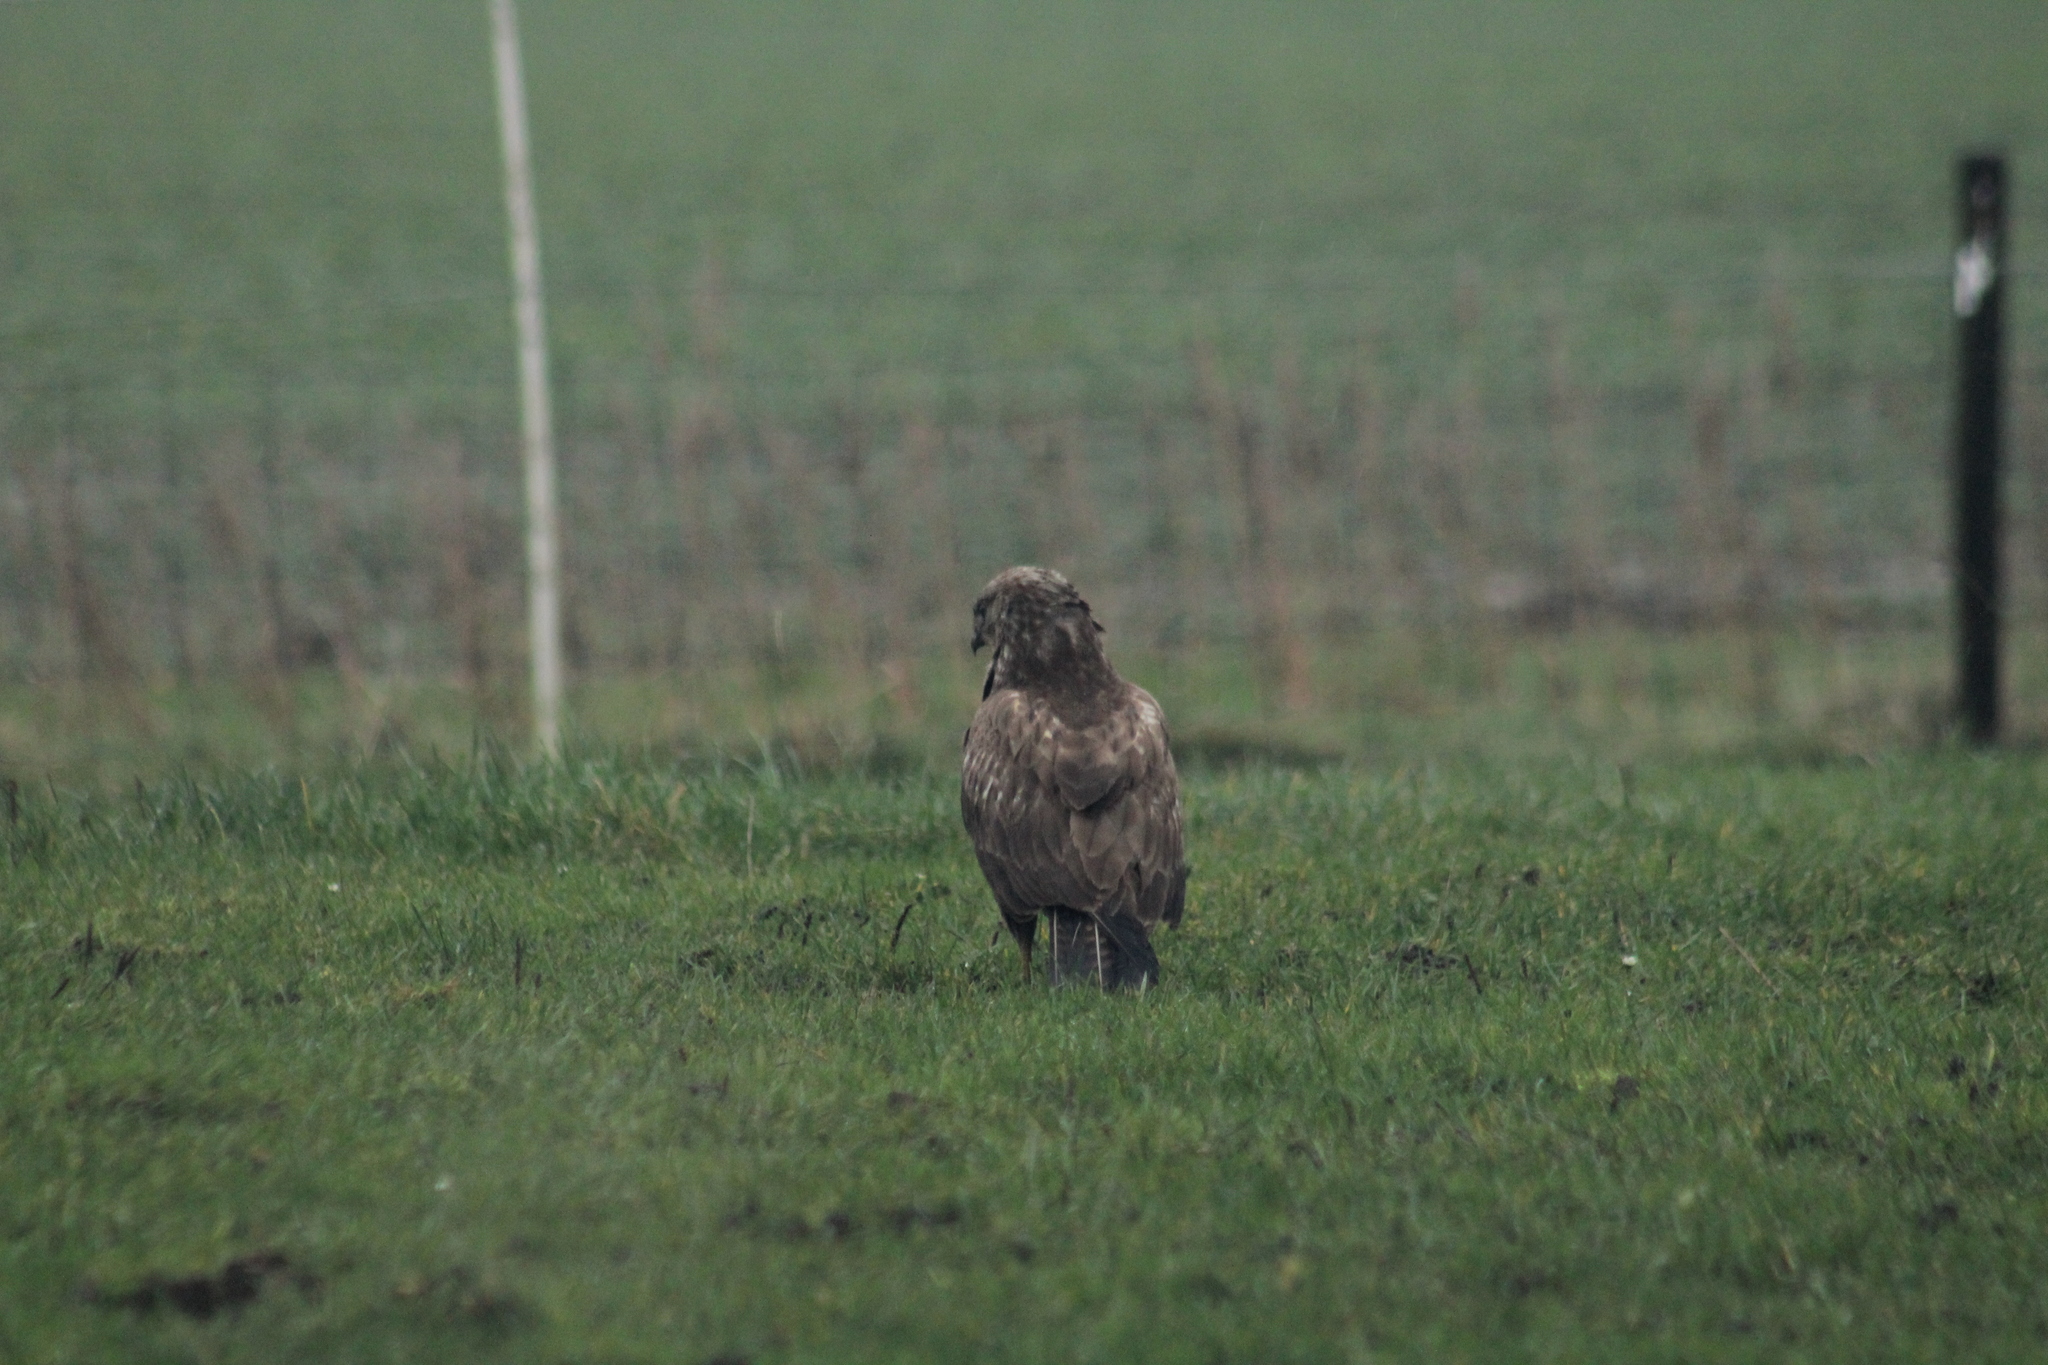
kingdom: Animalia
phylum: Chordata
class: Aves
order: Accipitriformes
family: Accipitridae
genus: Buteo
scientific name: Buteo buteo
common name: Common buzzard
